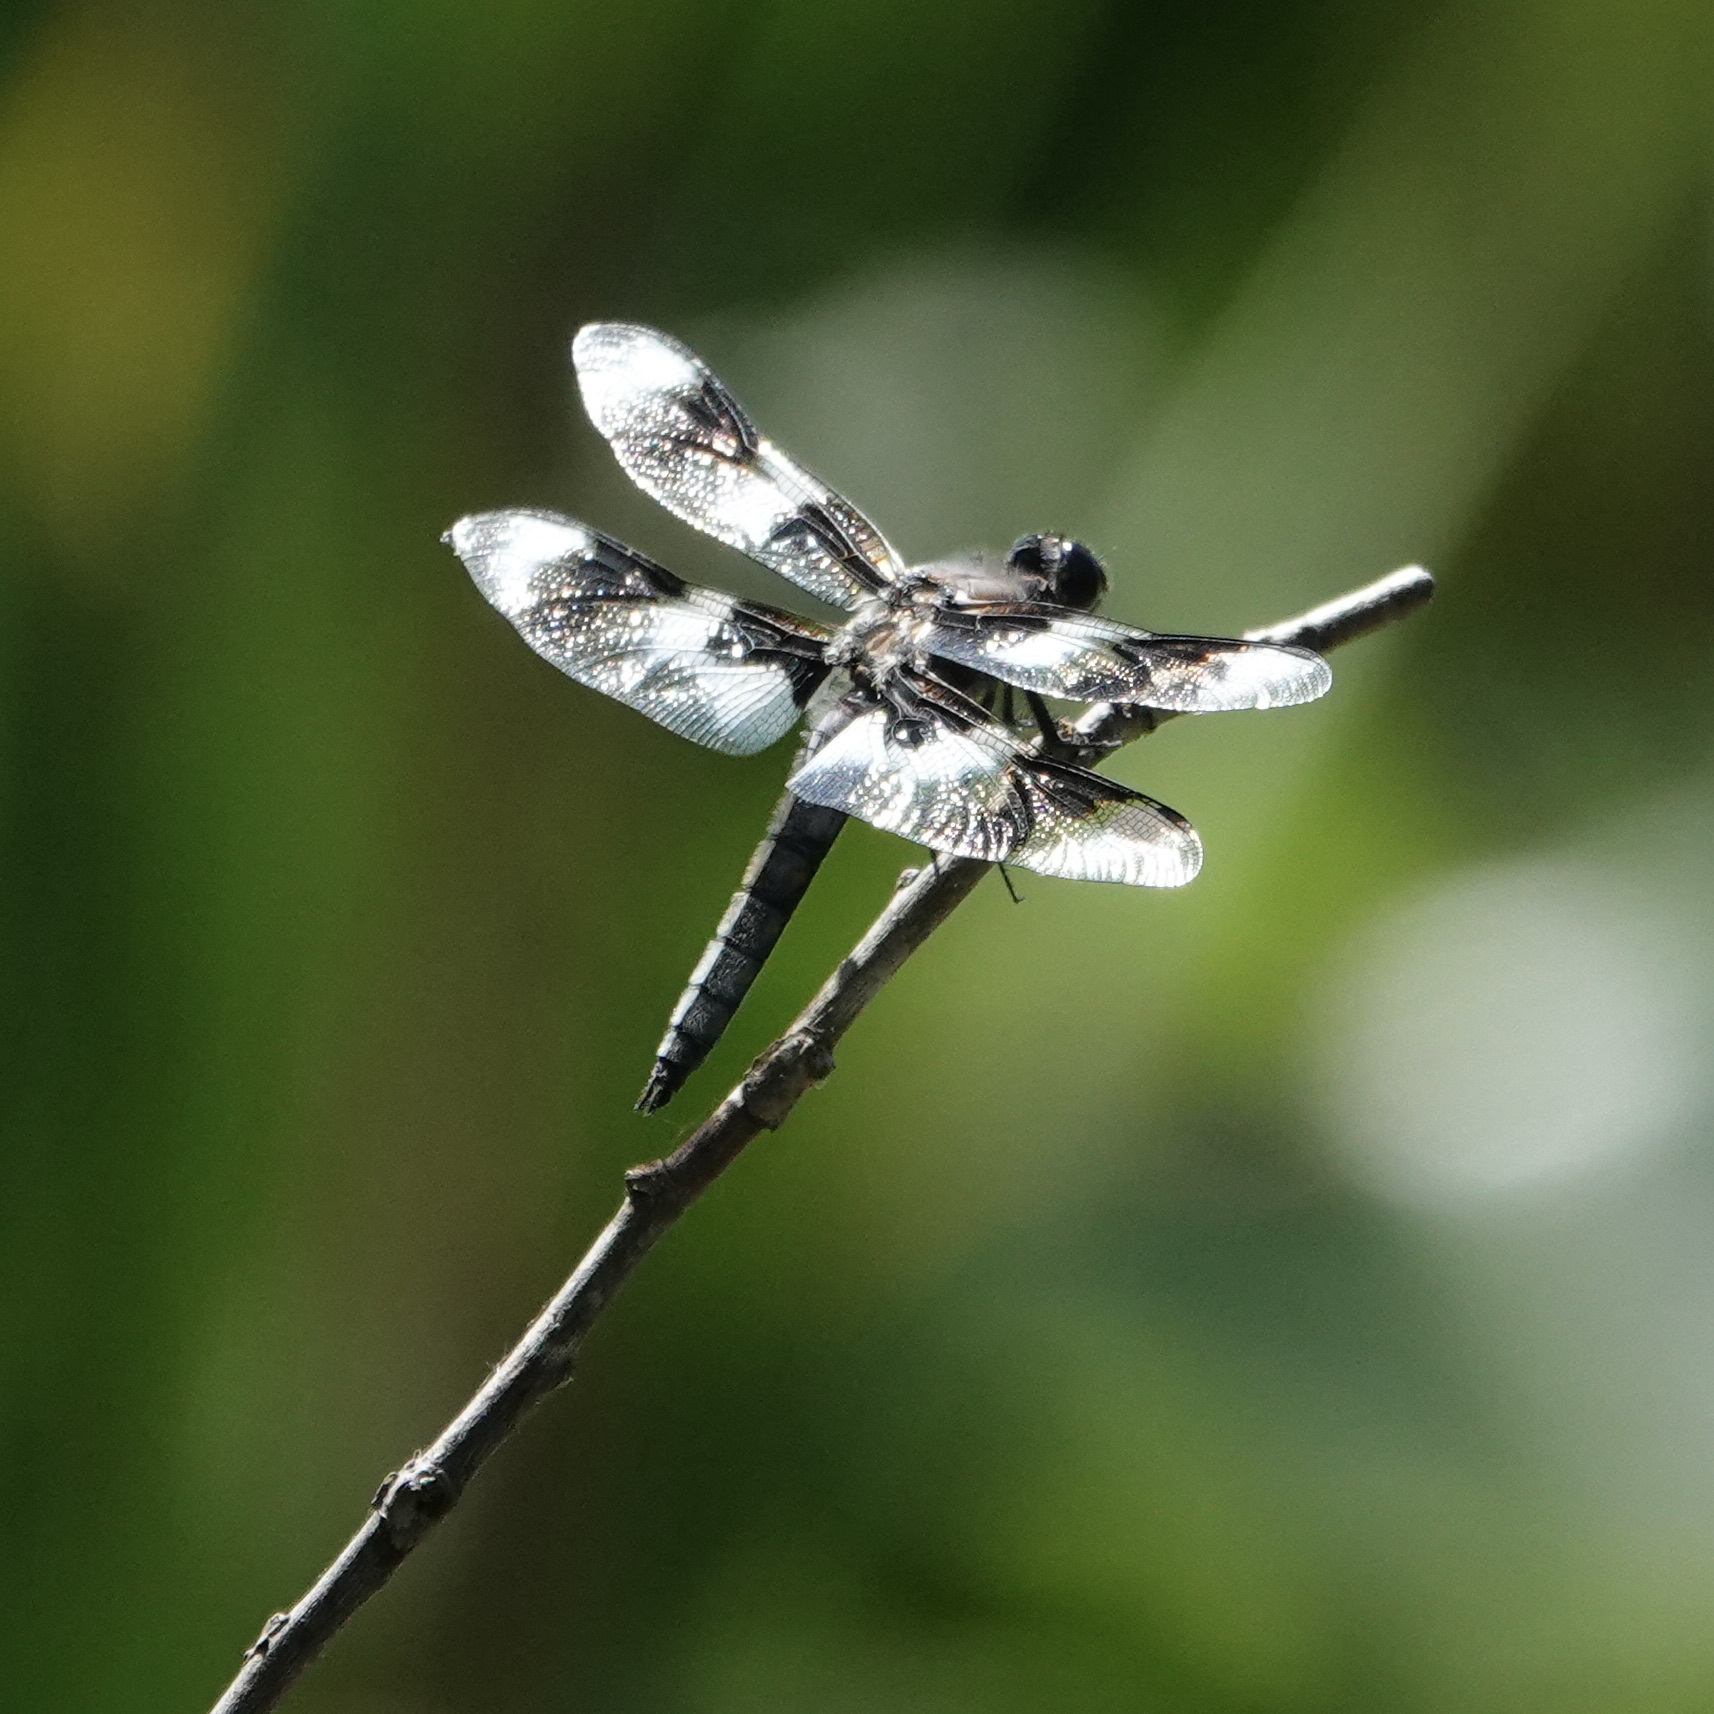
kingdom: Animalia
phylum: Arthropoda
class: Insecta
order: Odonata
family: Libellulidae
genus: Libellula
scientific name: Libellula forensis
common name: Eight-spotted skimmer
